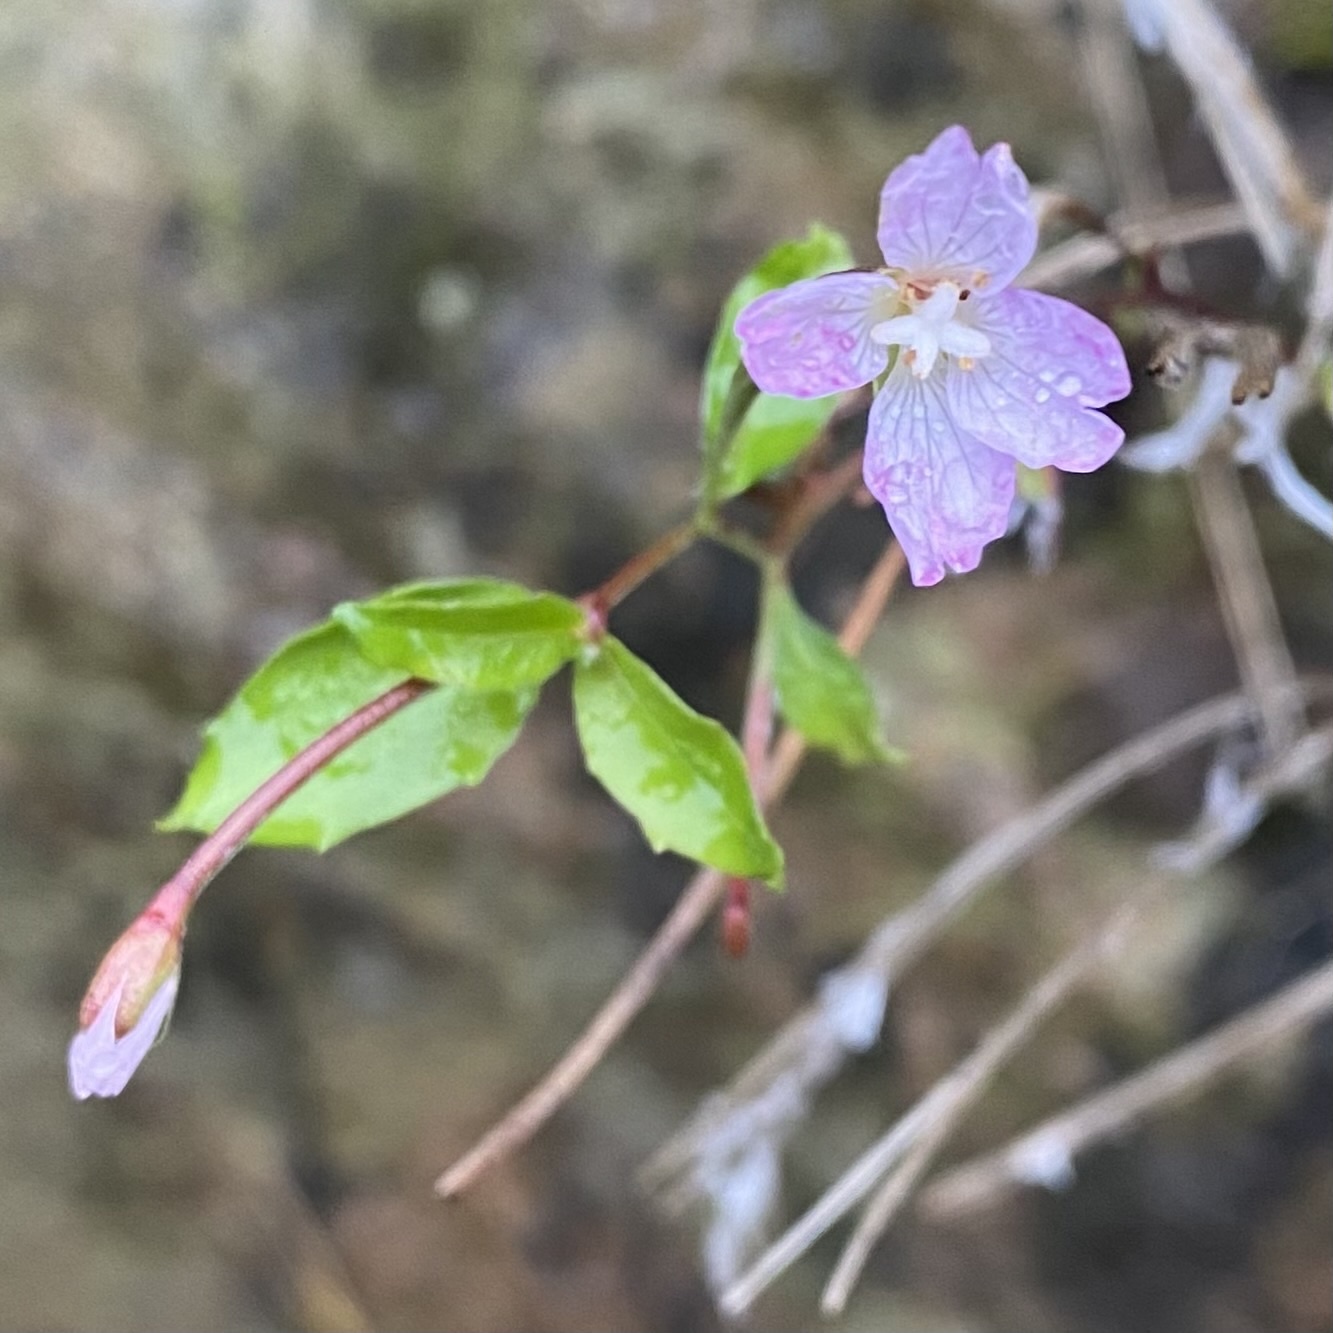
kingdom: Plantae
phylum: Tracheophyta
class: Magnoliopsida
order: Myrtales
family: Onagraceae
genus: Epilobium
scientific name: Epilobium hirsutum
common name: Great willowherb
